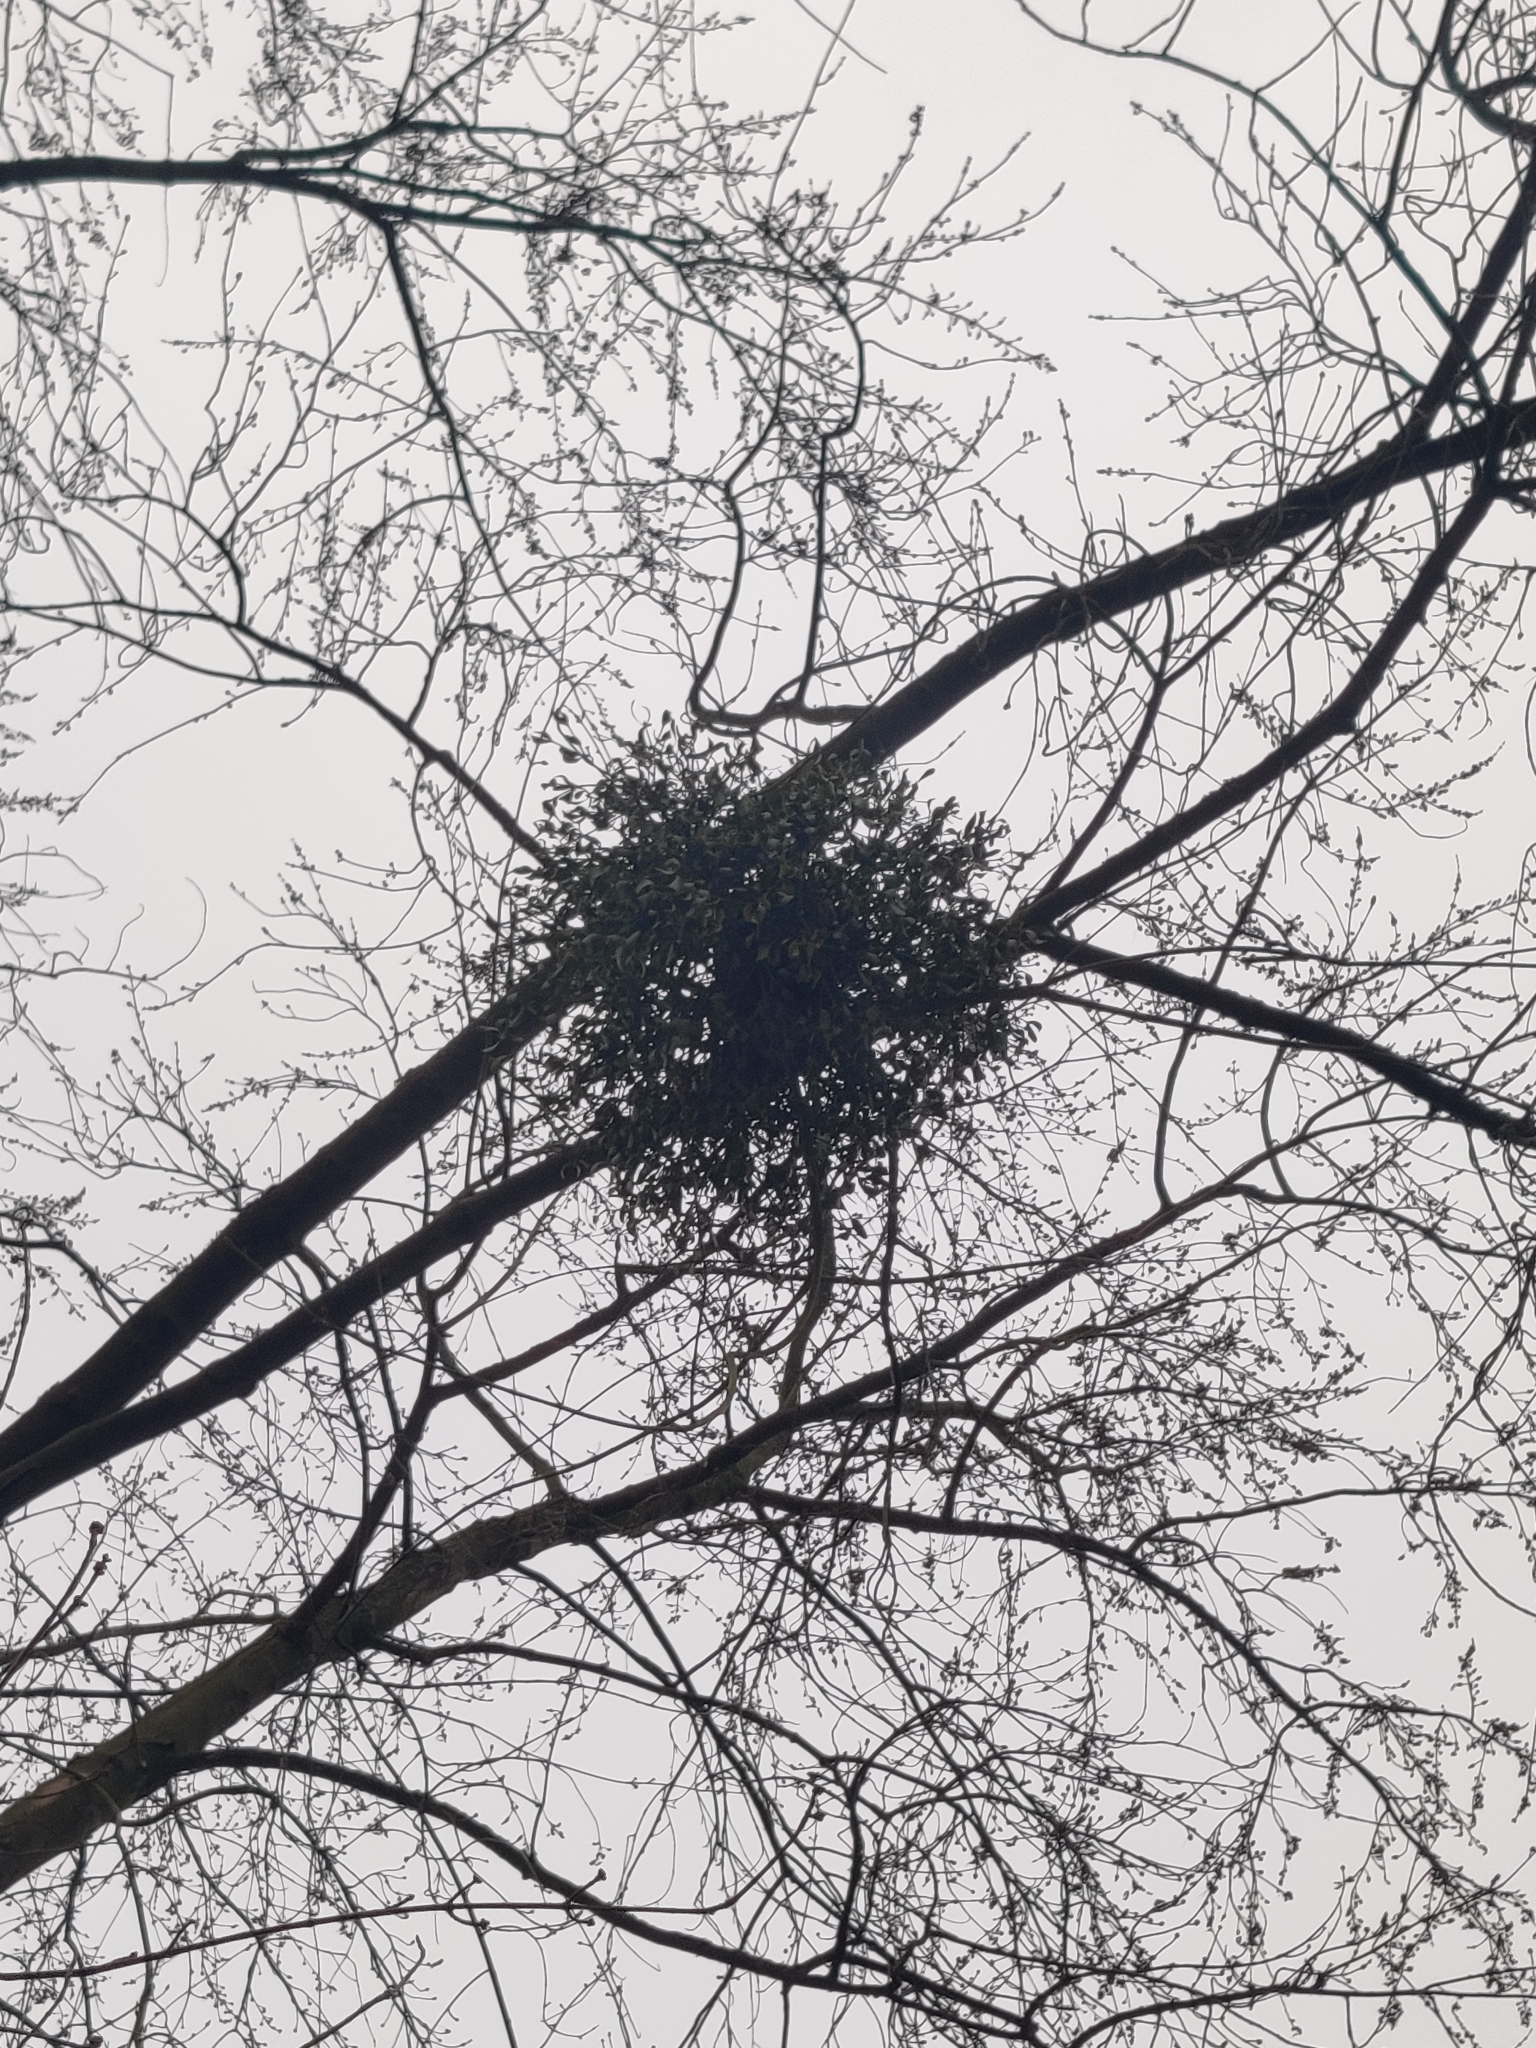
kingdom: Plantae
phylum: Tracheophyta
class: Magnoliopsida
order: Santalales
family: Viscaceae
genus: Viscum
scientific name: Viscum album
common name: Mistletoe
